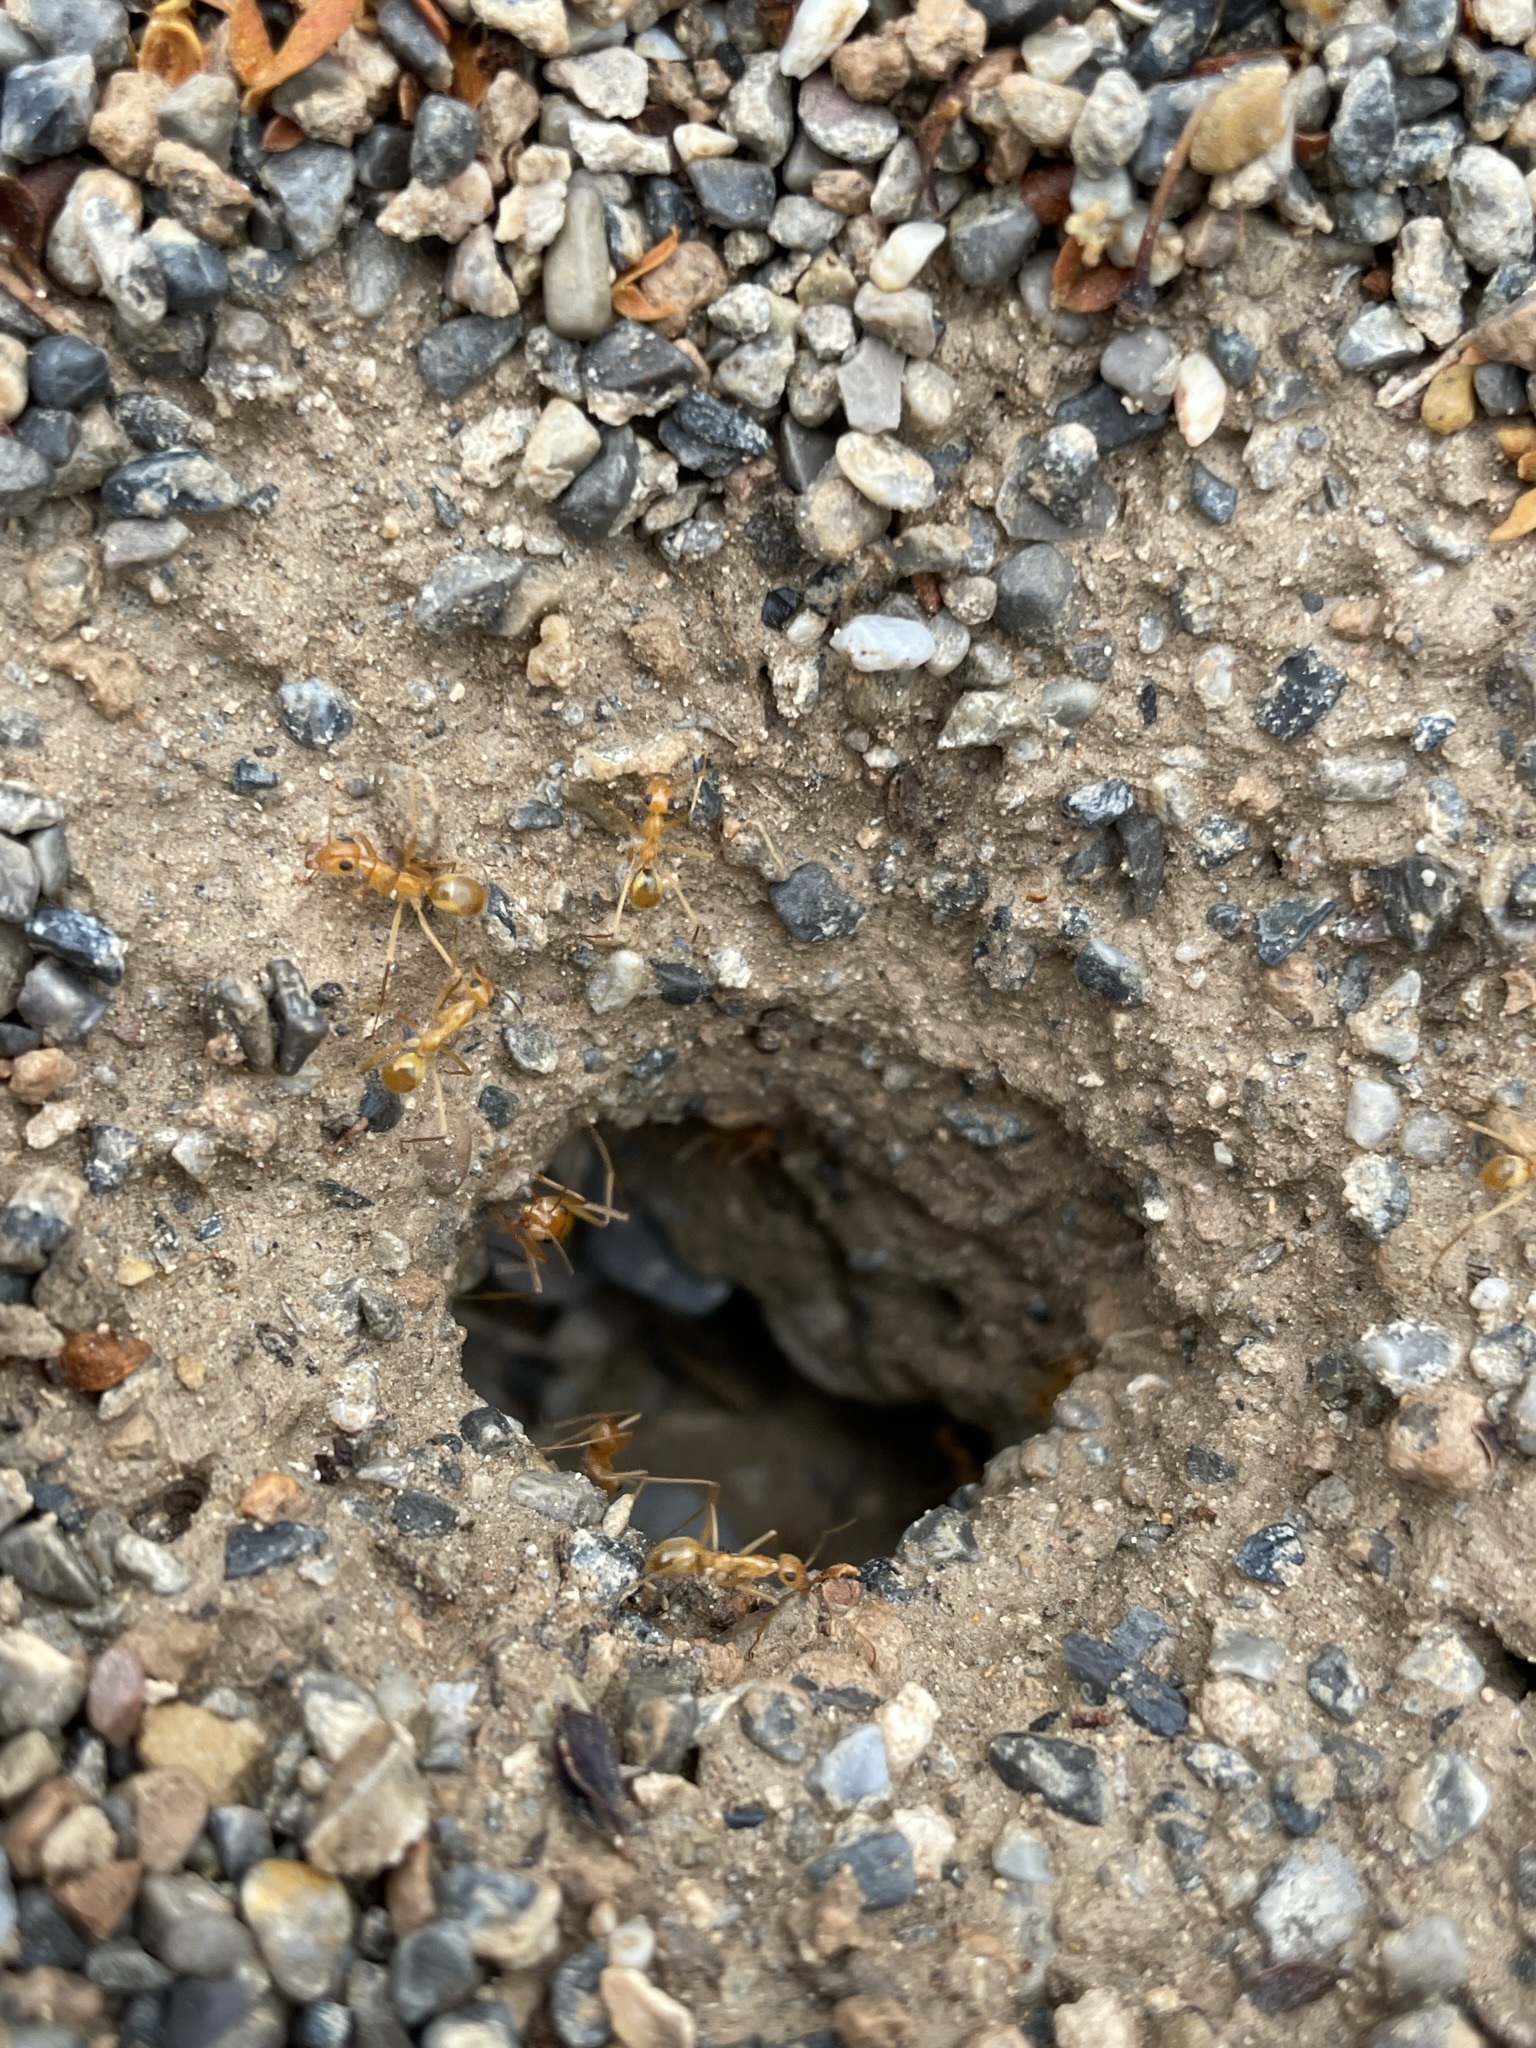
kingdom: Animalia
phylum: Arthropoda
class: Insecta
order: Hymenoptera
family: Formicidae
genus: Myrmecocystus
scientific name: Myrmecocystus mexicanus
